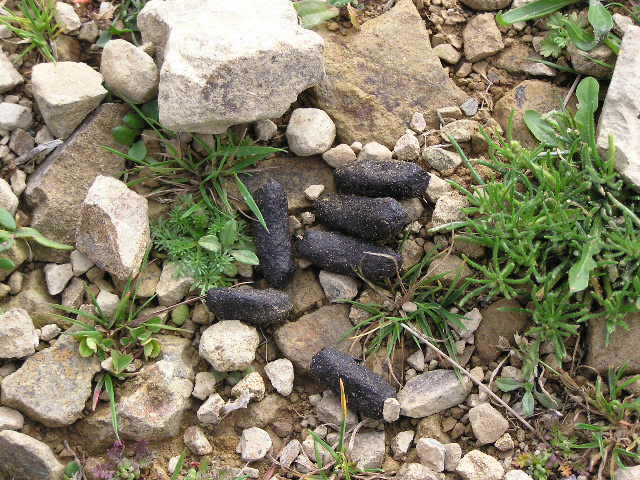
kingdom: Animalia
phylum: Chordata
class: Mammalia
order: Diprotodontia
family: Phalangeridae
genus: Trichosurus
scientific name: Trichosurus vulpecula
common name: Common brushtail
